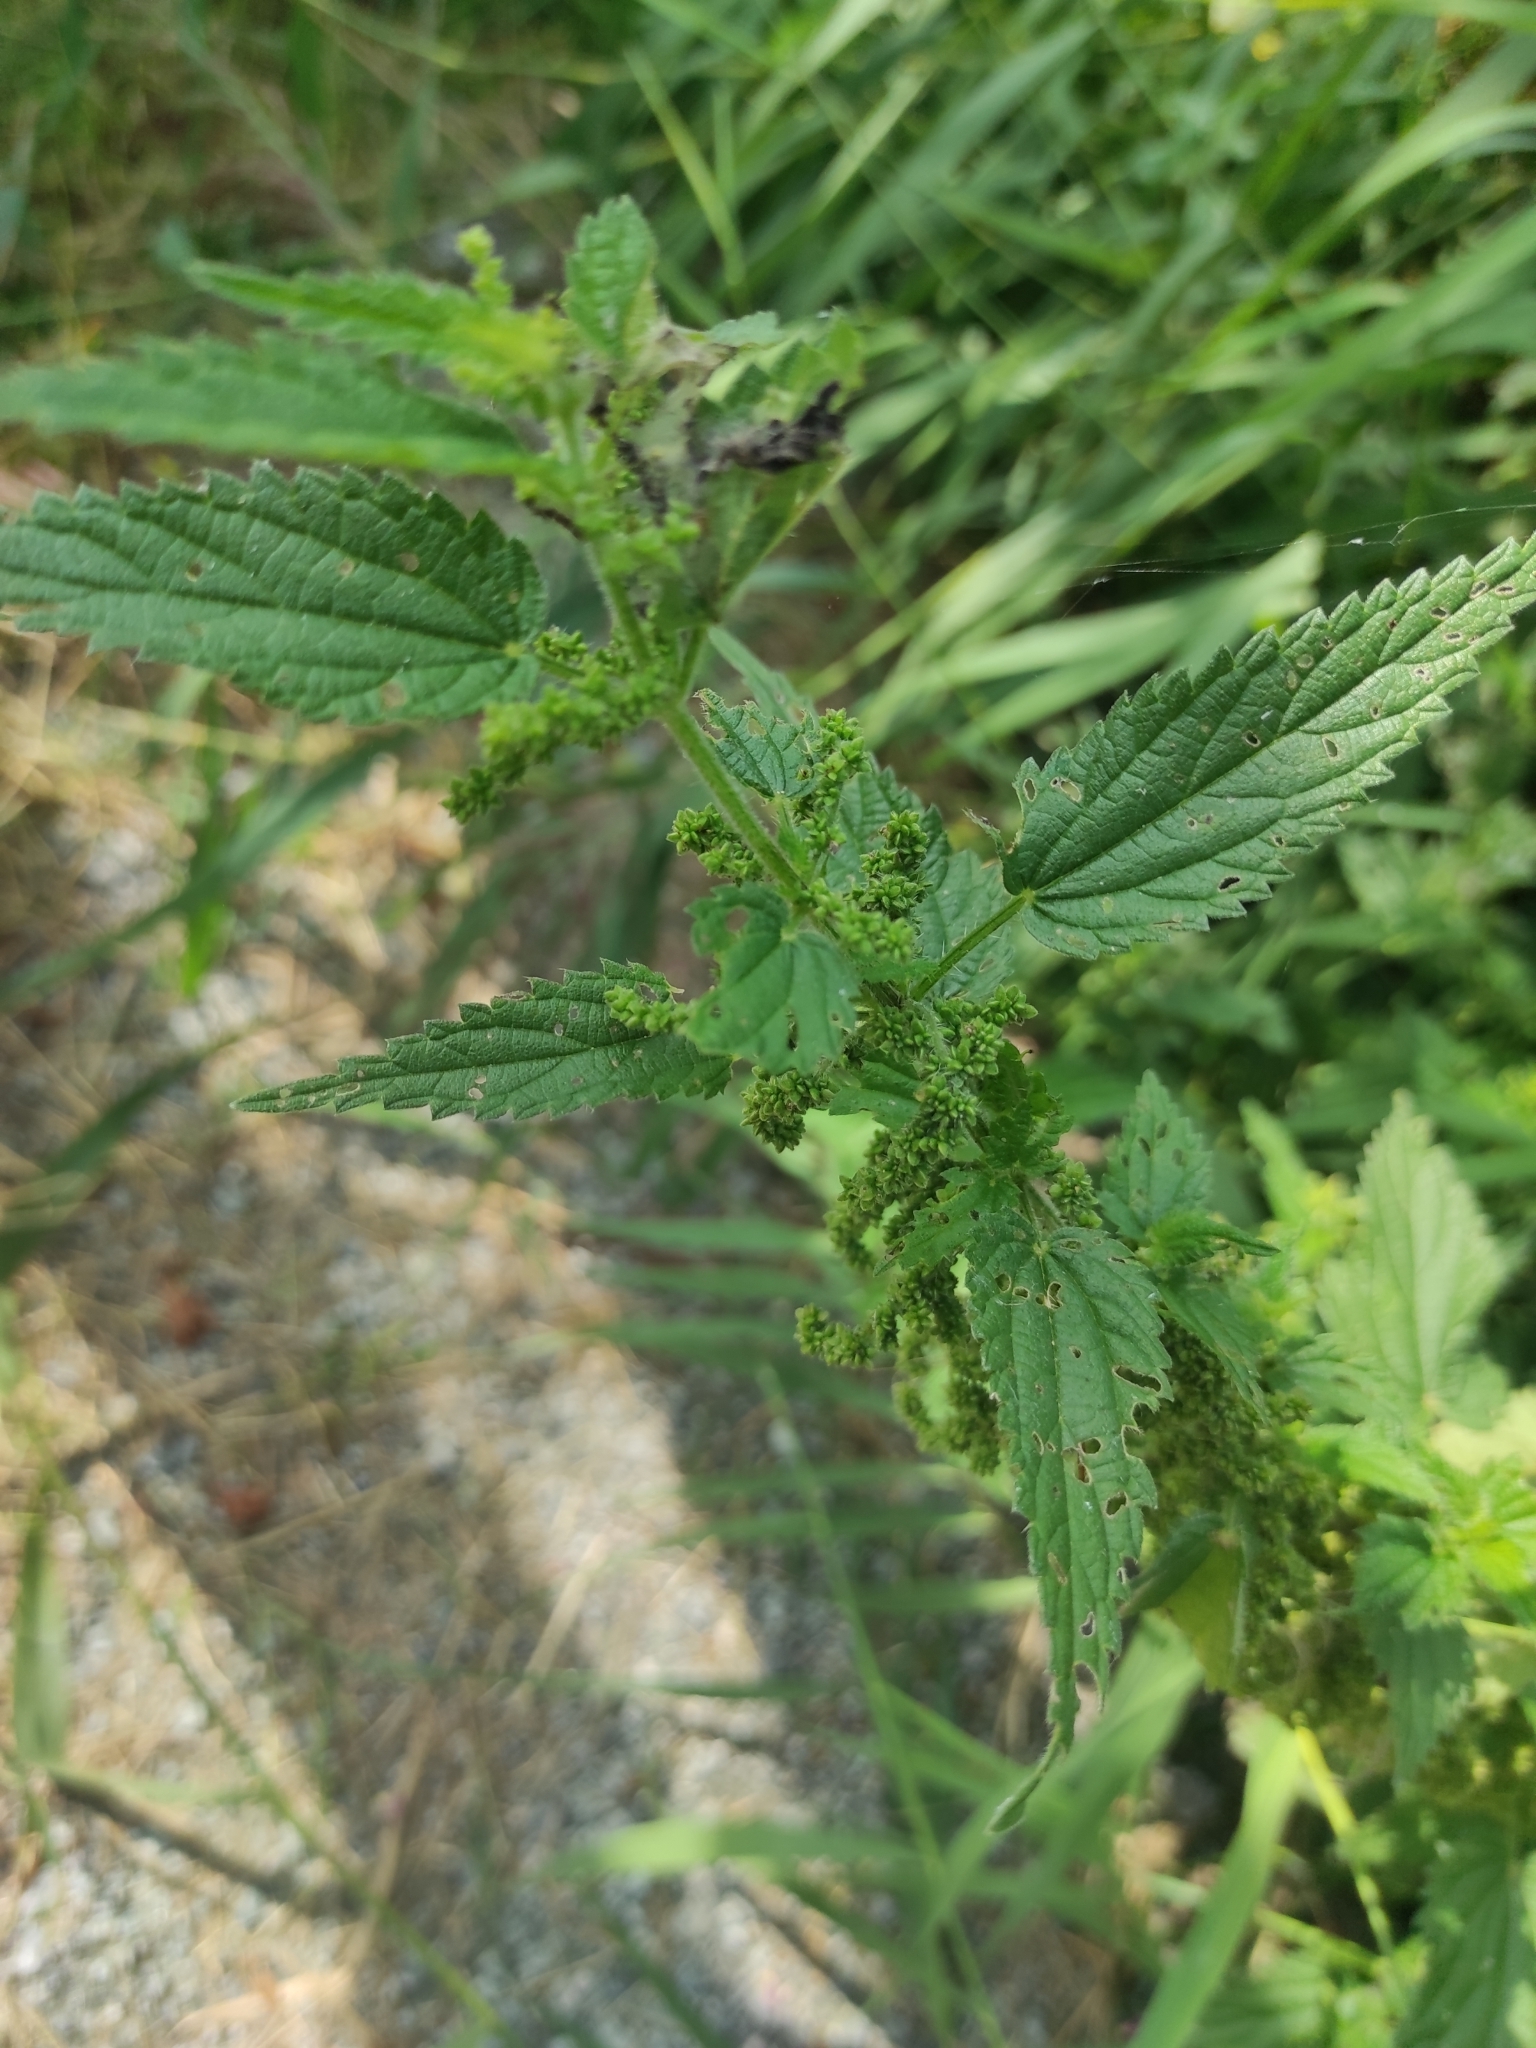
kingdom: Plantae
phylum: Tracheophyta
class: Magnoliopsida
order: Rosales
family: Urticaceae
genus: Urtica
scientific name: Urtica dioica
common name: Common nettle
